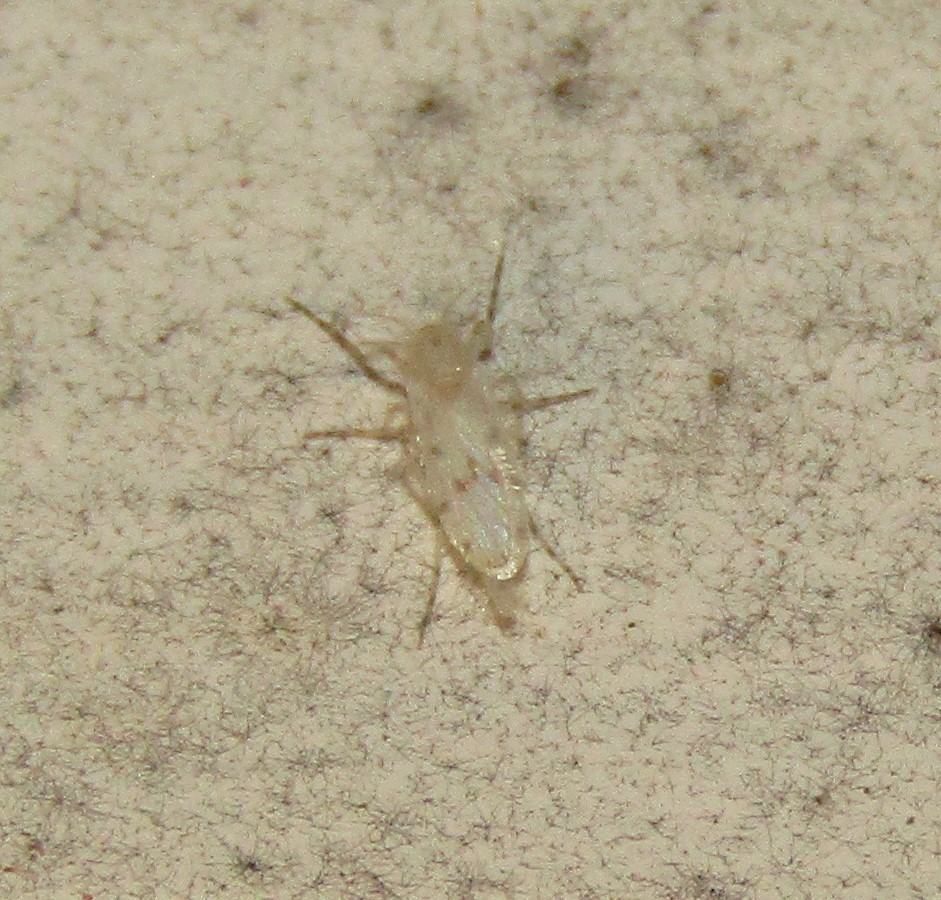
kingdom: Animalia
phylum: Arthropoda
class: Insecta
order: Diptera
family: Chaoboridae
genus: Chaoborus
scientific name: Chaoborus punctipennis
